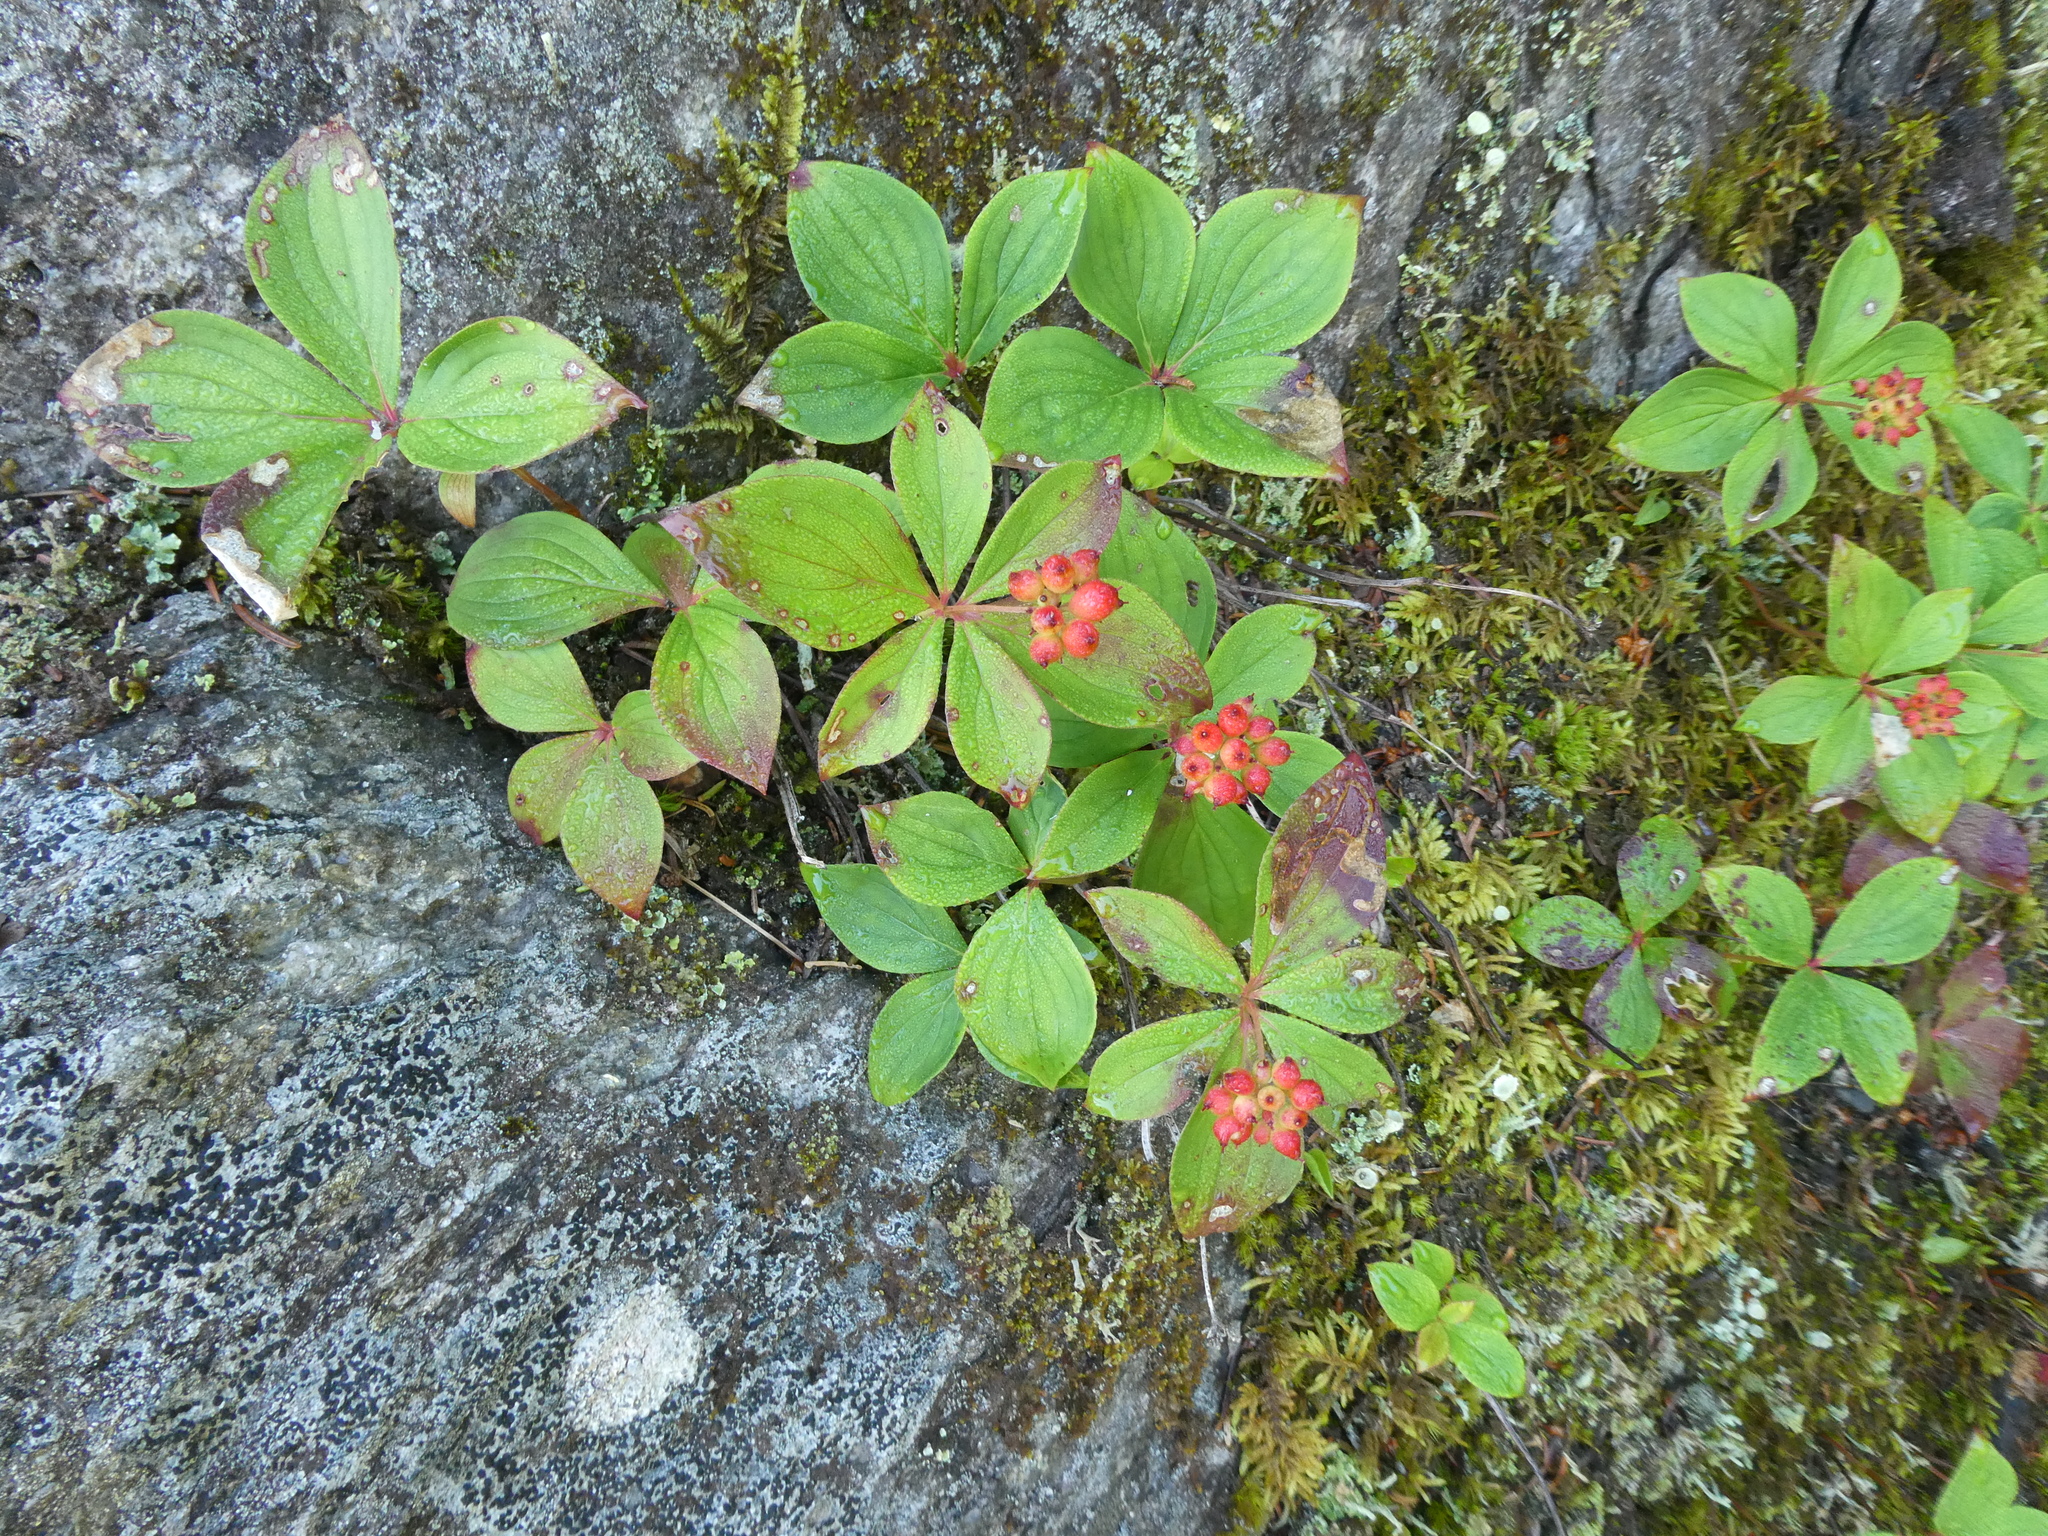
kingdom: Plantae
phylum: Tracheophyta
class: Magnoliopsida
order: Cornales
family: Cornaceae
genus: Cornus
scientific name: Cornus canadensis
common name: Creeping dogwood
